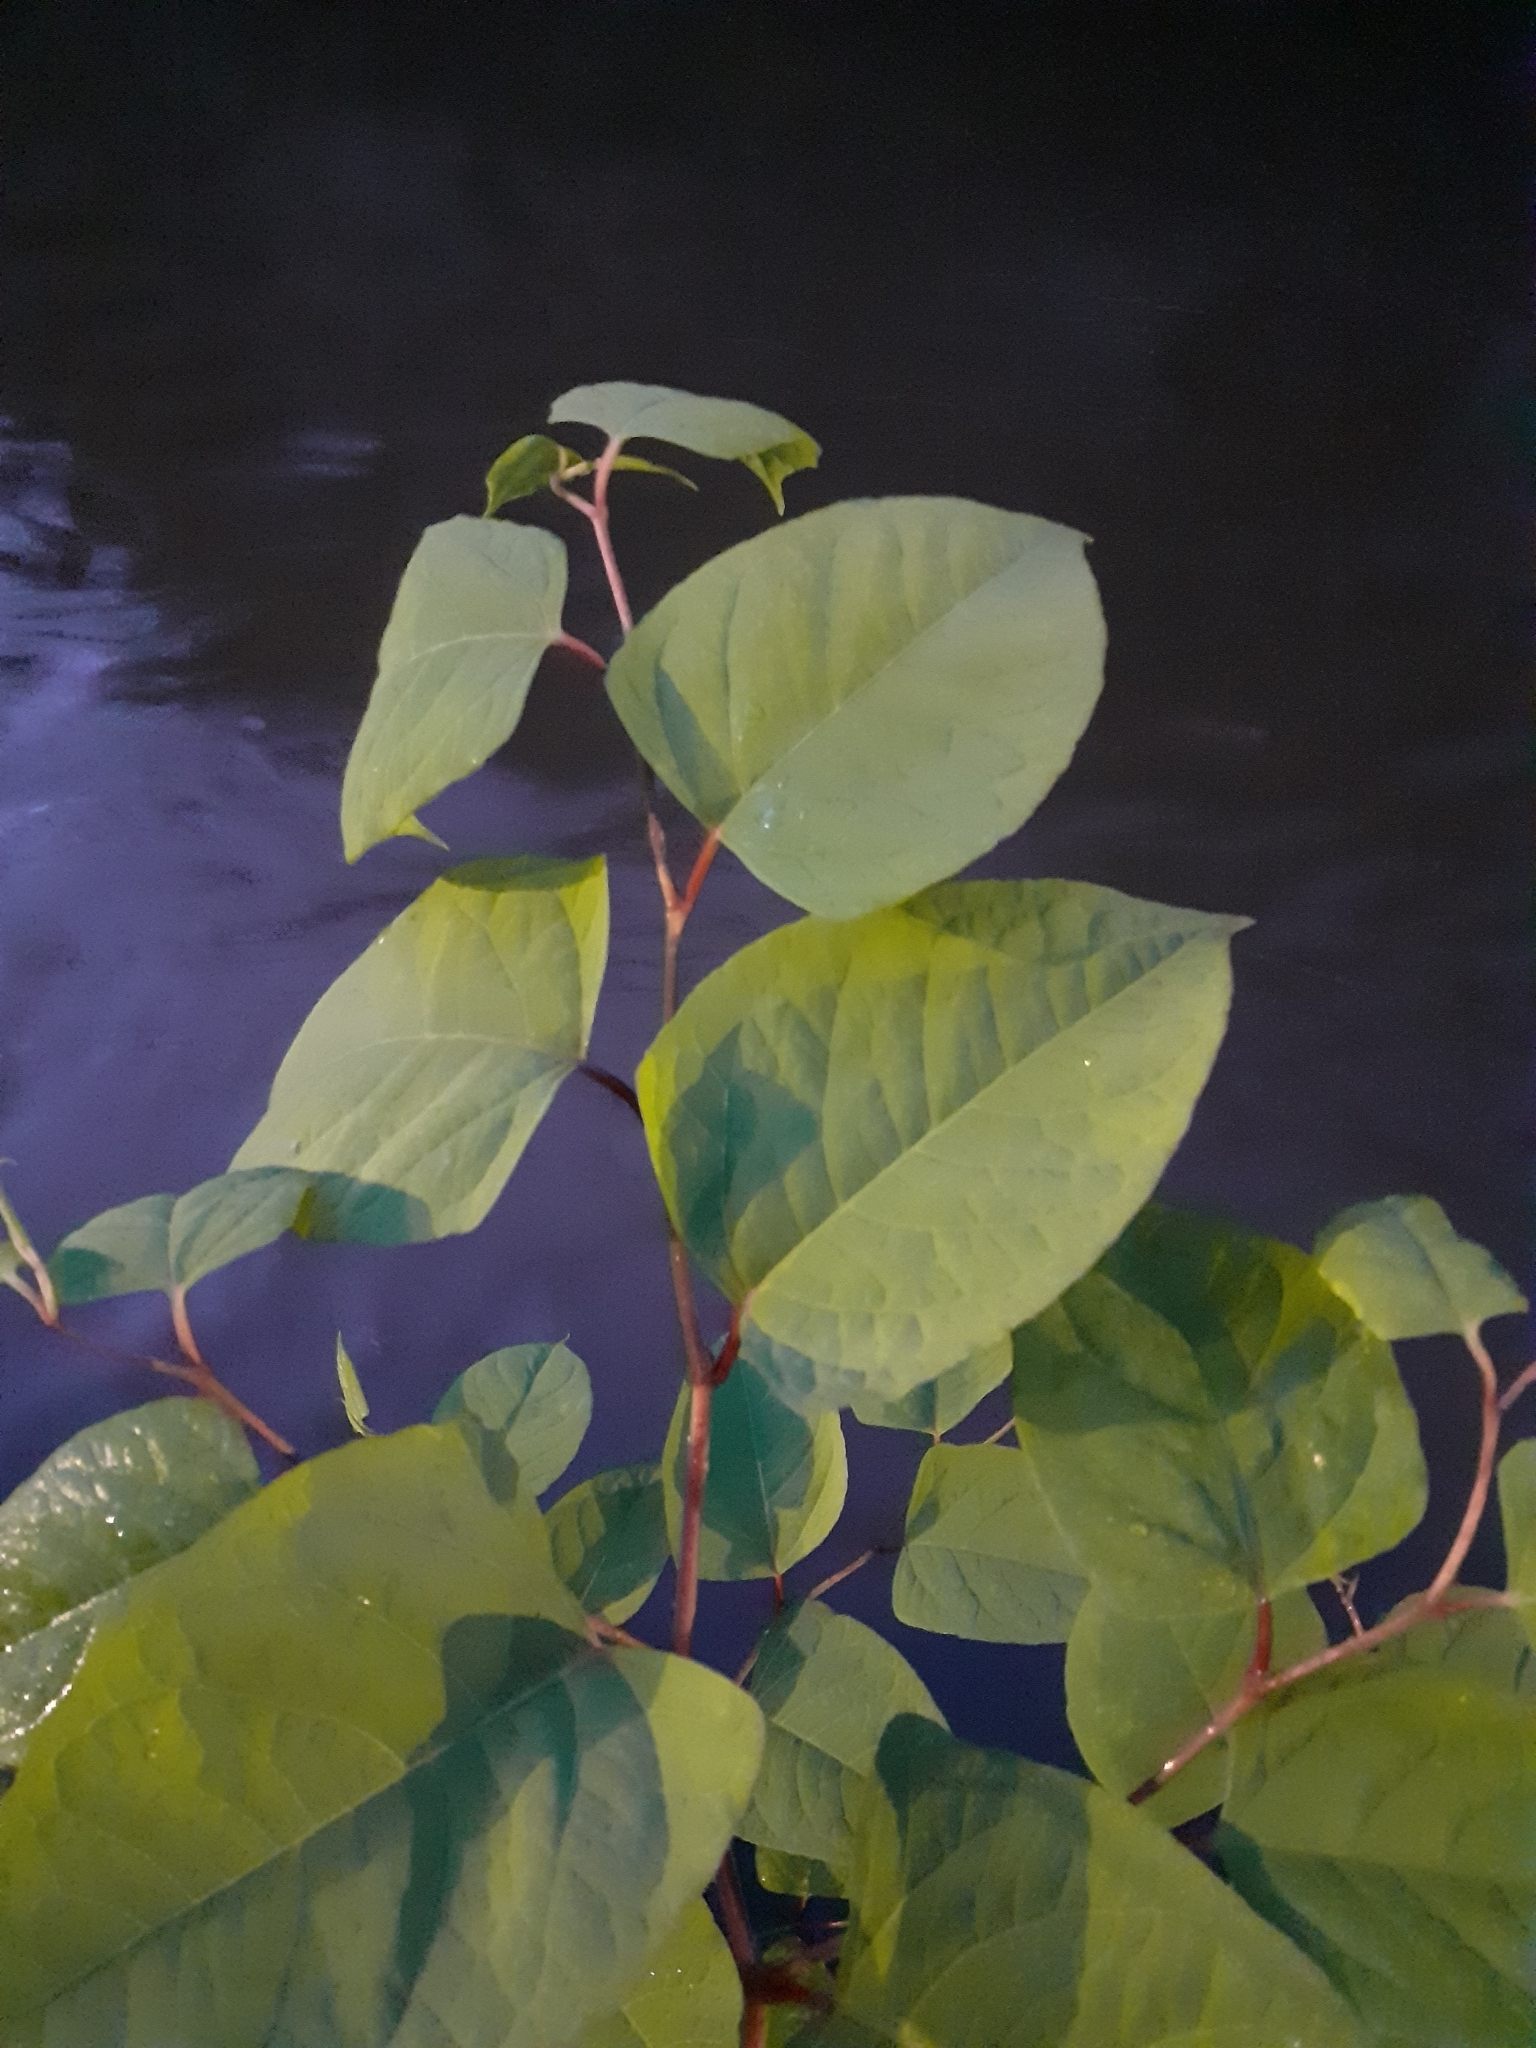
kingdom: Plantae
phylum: Tracheophyta
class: Magnoliopsida
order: Caryophyllales
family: Polygonaceae
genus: Reynoutria
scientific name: Reynoutria japonica
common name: Japanese knotweed
